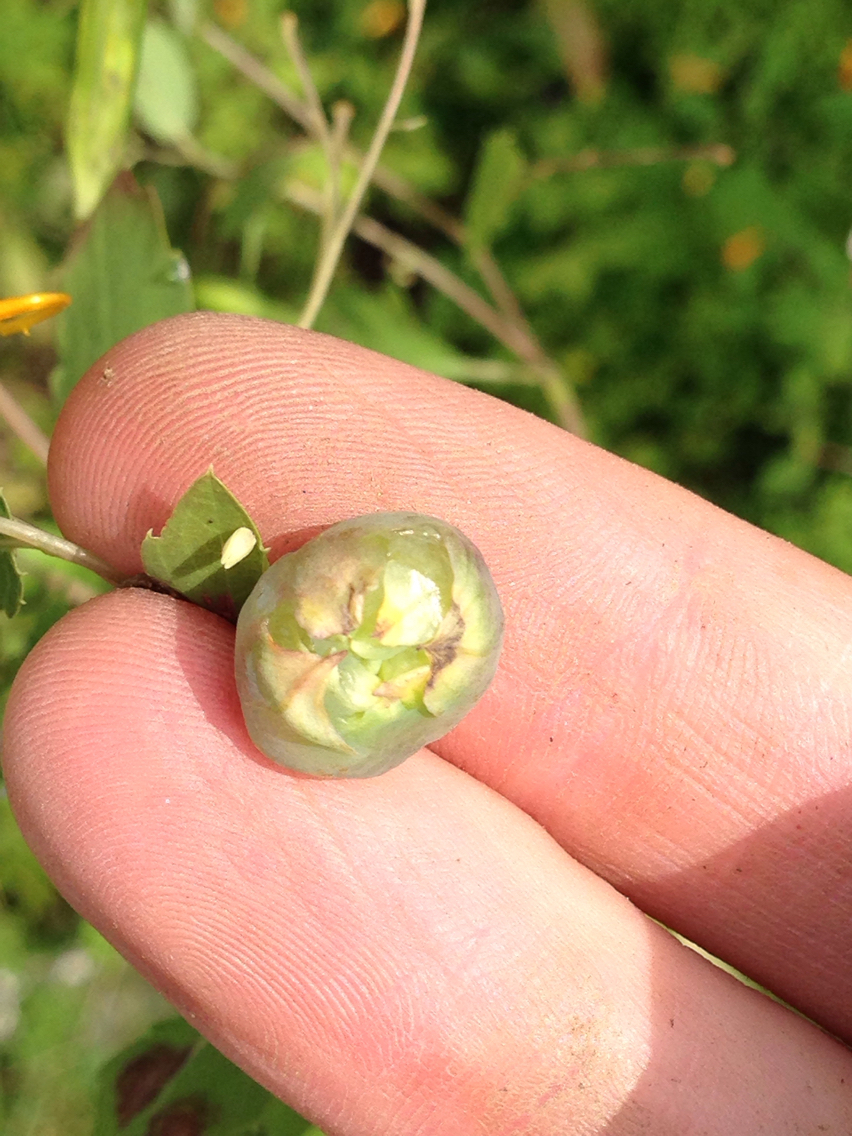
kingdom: Animalia
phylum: Arthropoda
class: Insecta
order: Diptera
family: Cecidomyiidae
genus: Schizomyia
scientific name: Schizomyia impatientis
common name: Jewelweed gall midge
